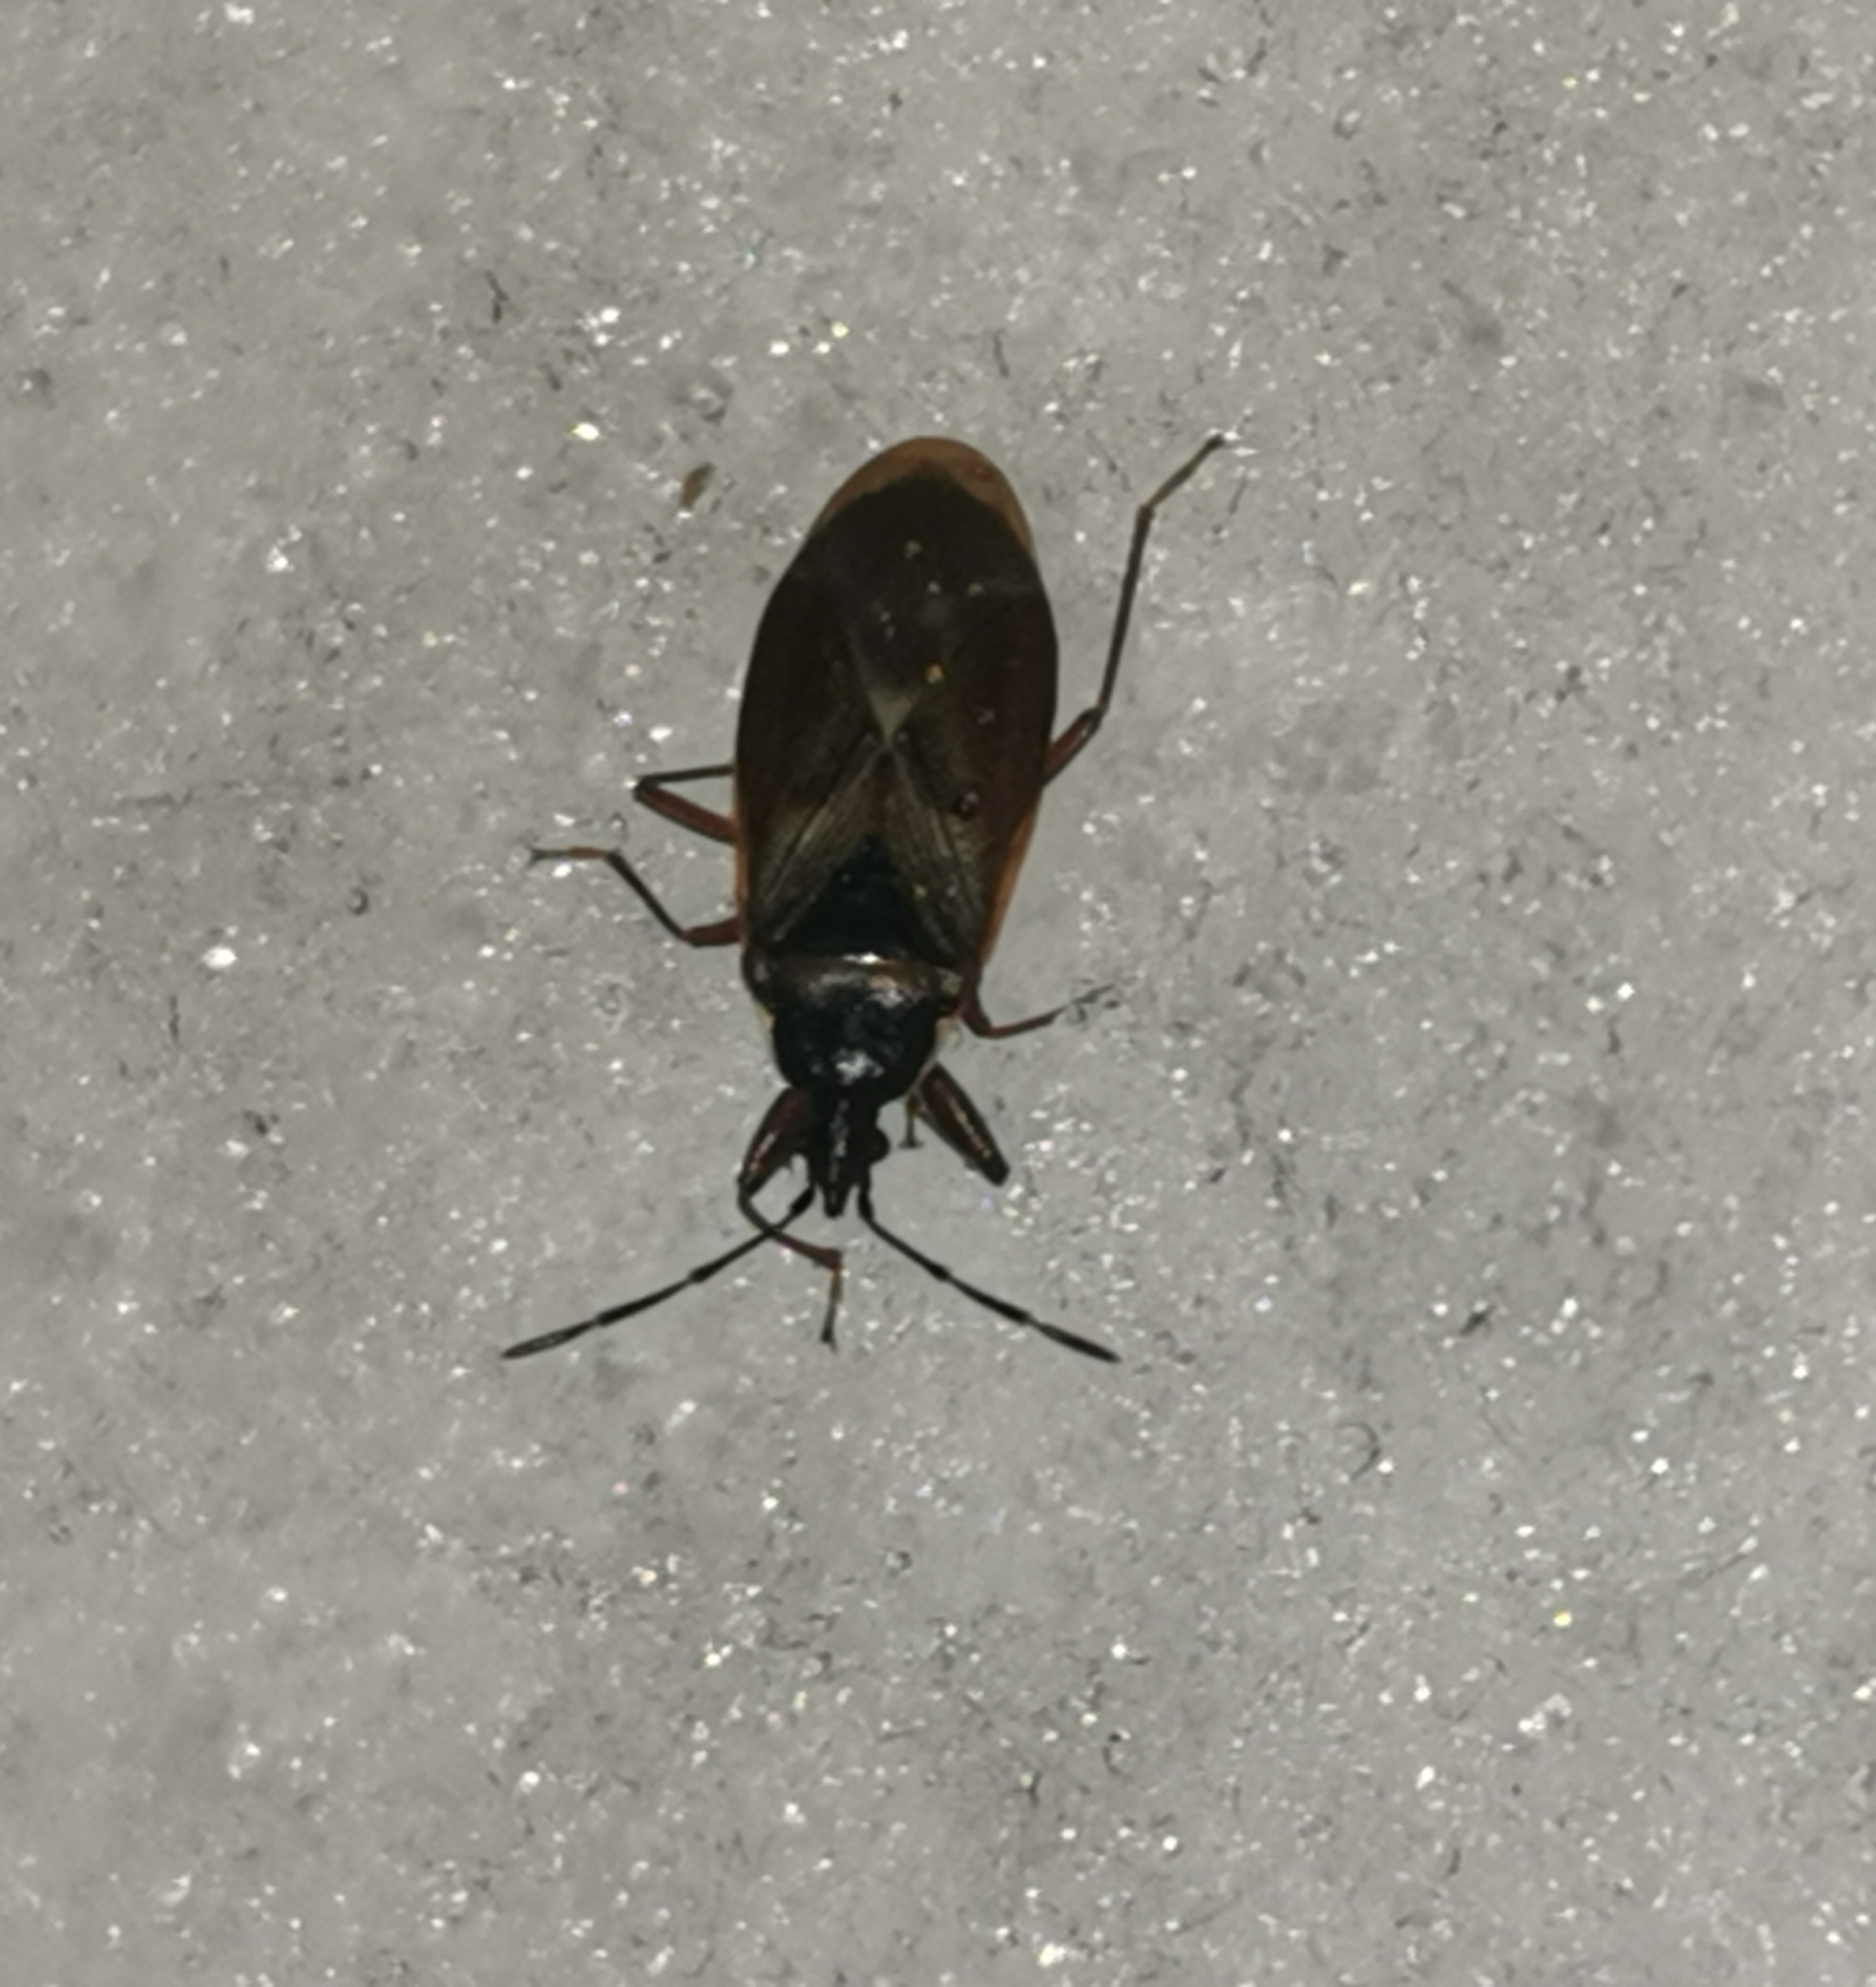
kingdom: Animalia
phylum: Arthropoda
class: Insecta
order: Hemiptera
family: Rhyparochromidae
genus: Gastrodes
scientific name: Gastrodes abietum
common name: Spruce cone bug
